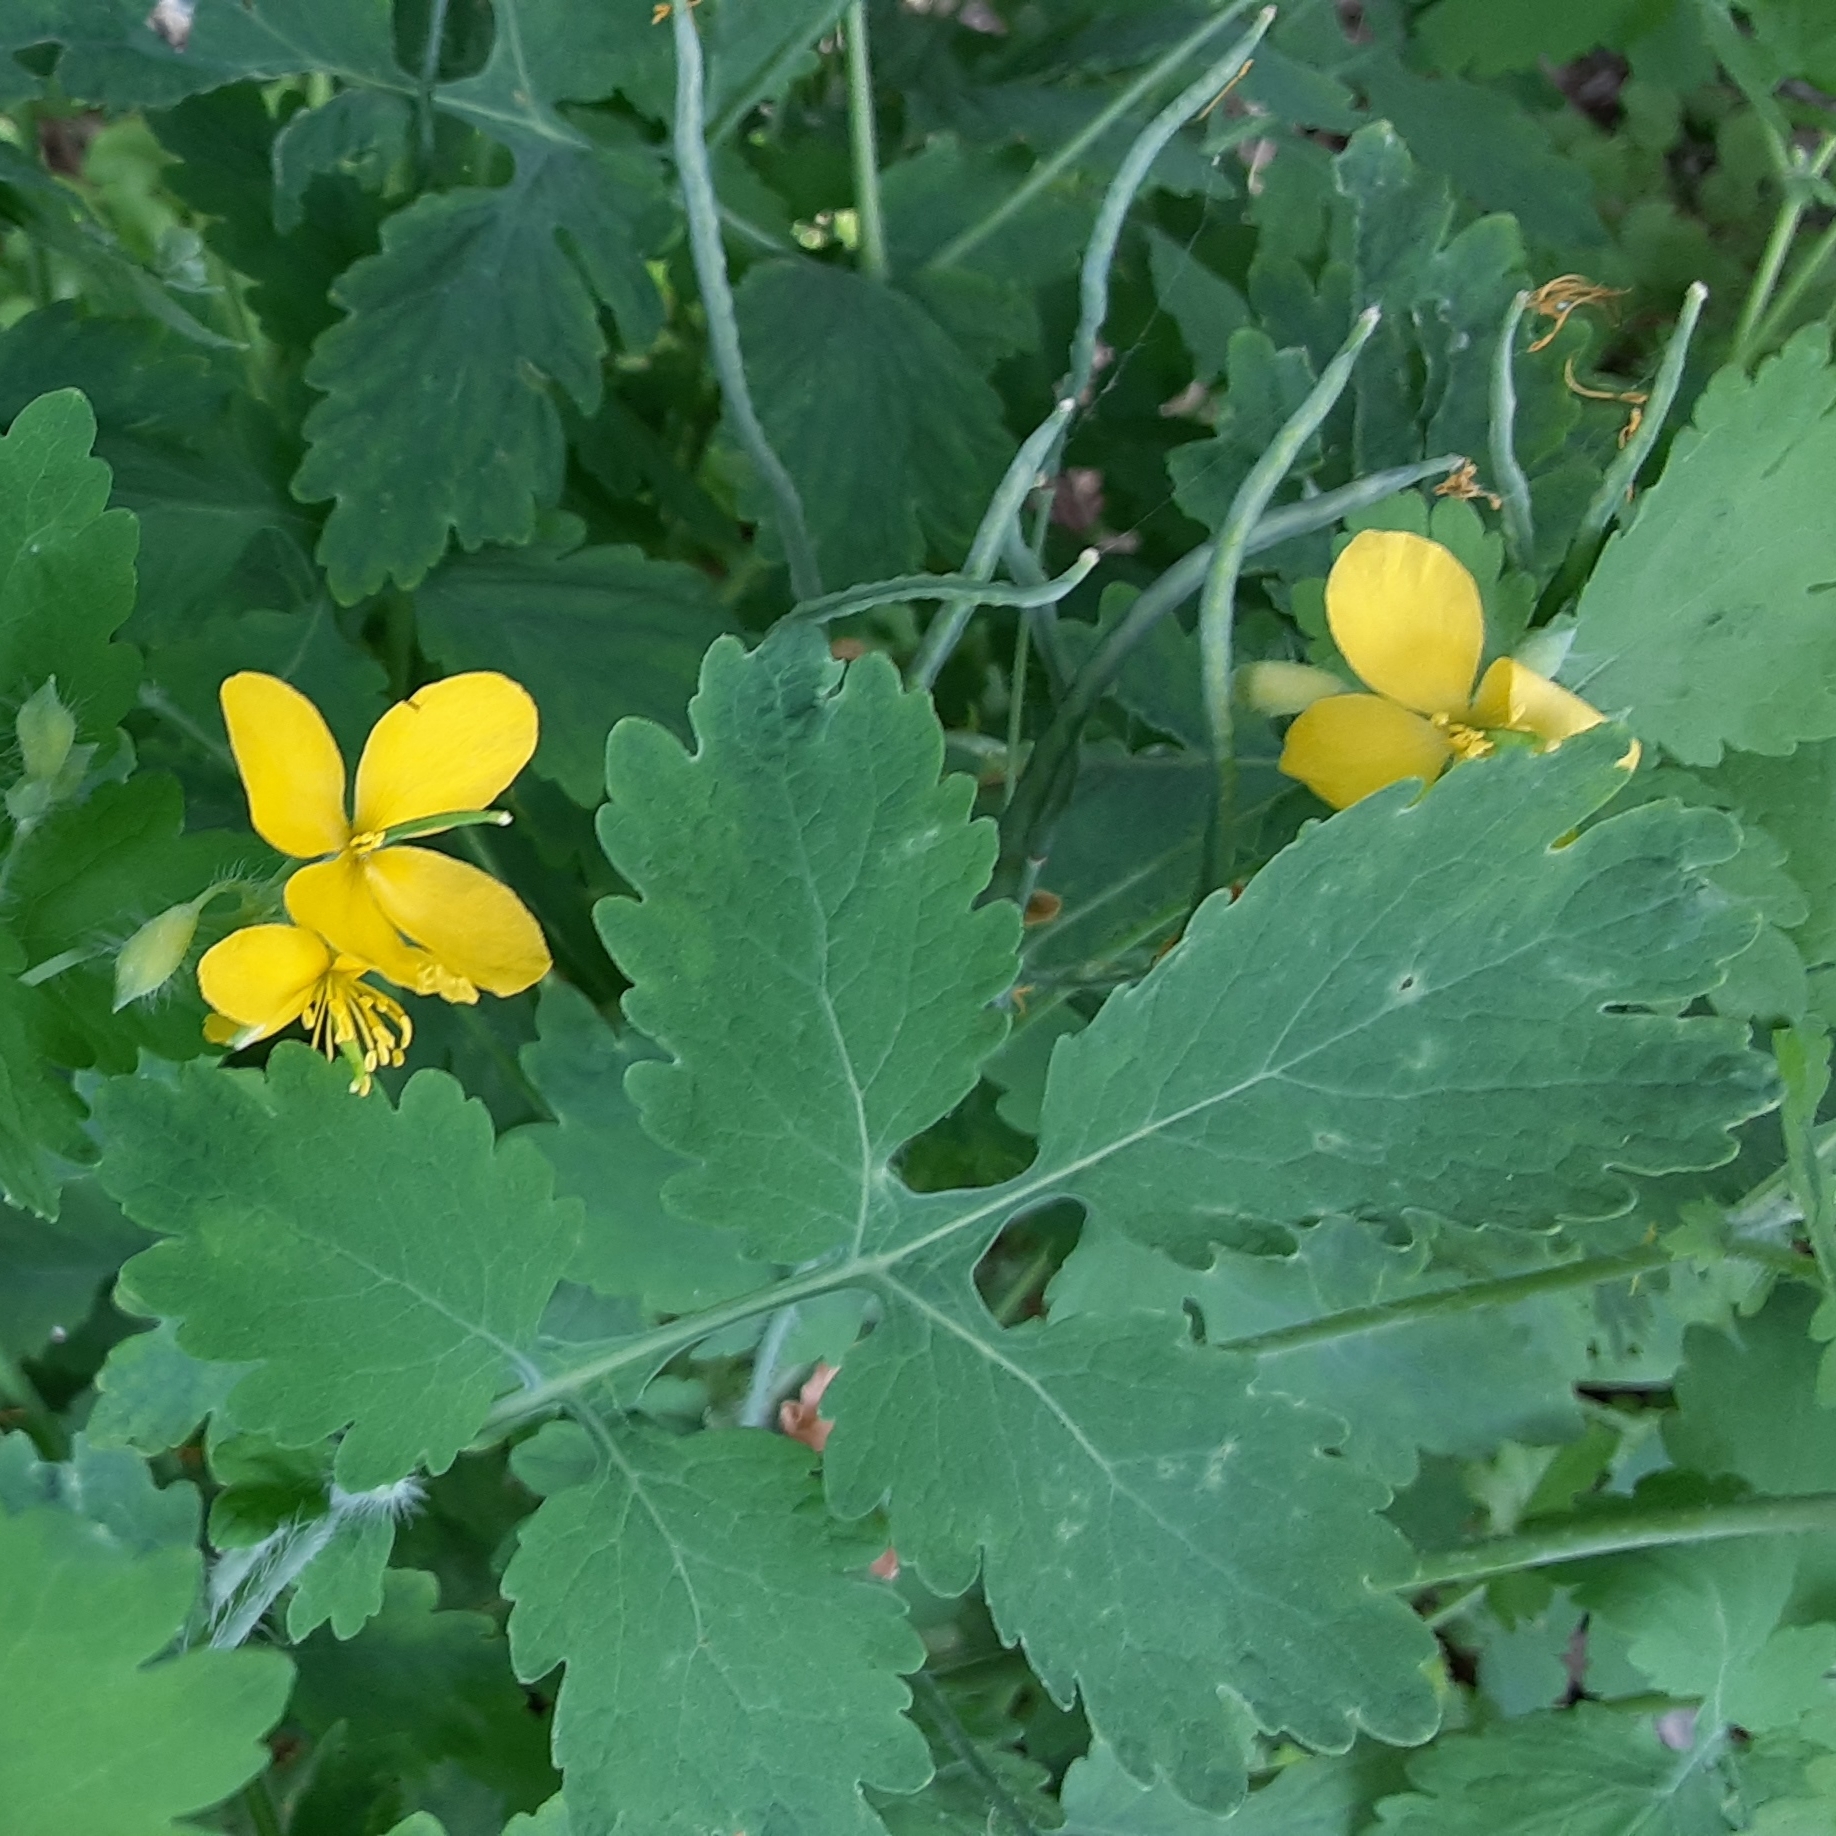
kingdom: Plantae
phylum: Tracheophyta
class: Magnoliopsida
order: Ranunculales
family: Papaveraceae
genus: Chelidonium
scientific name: Chelidonium majus
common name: Greater celandine
